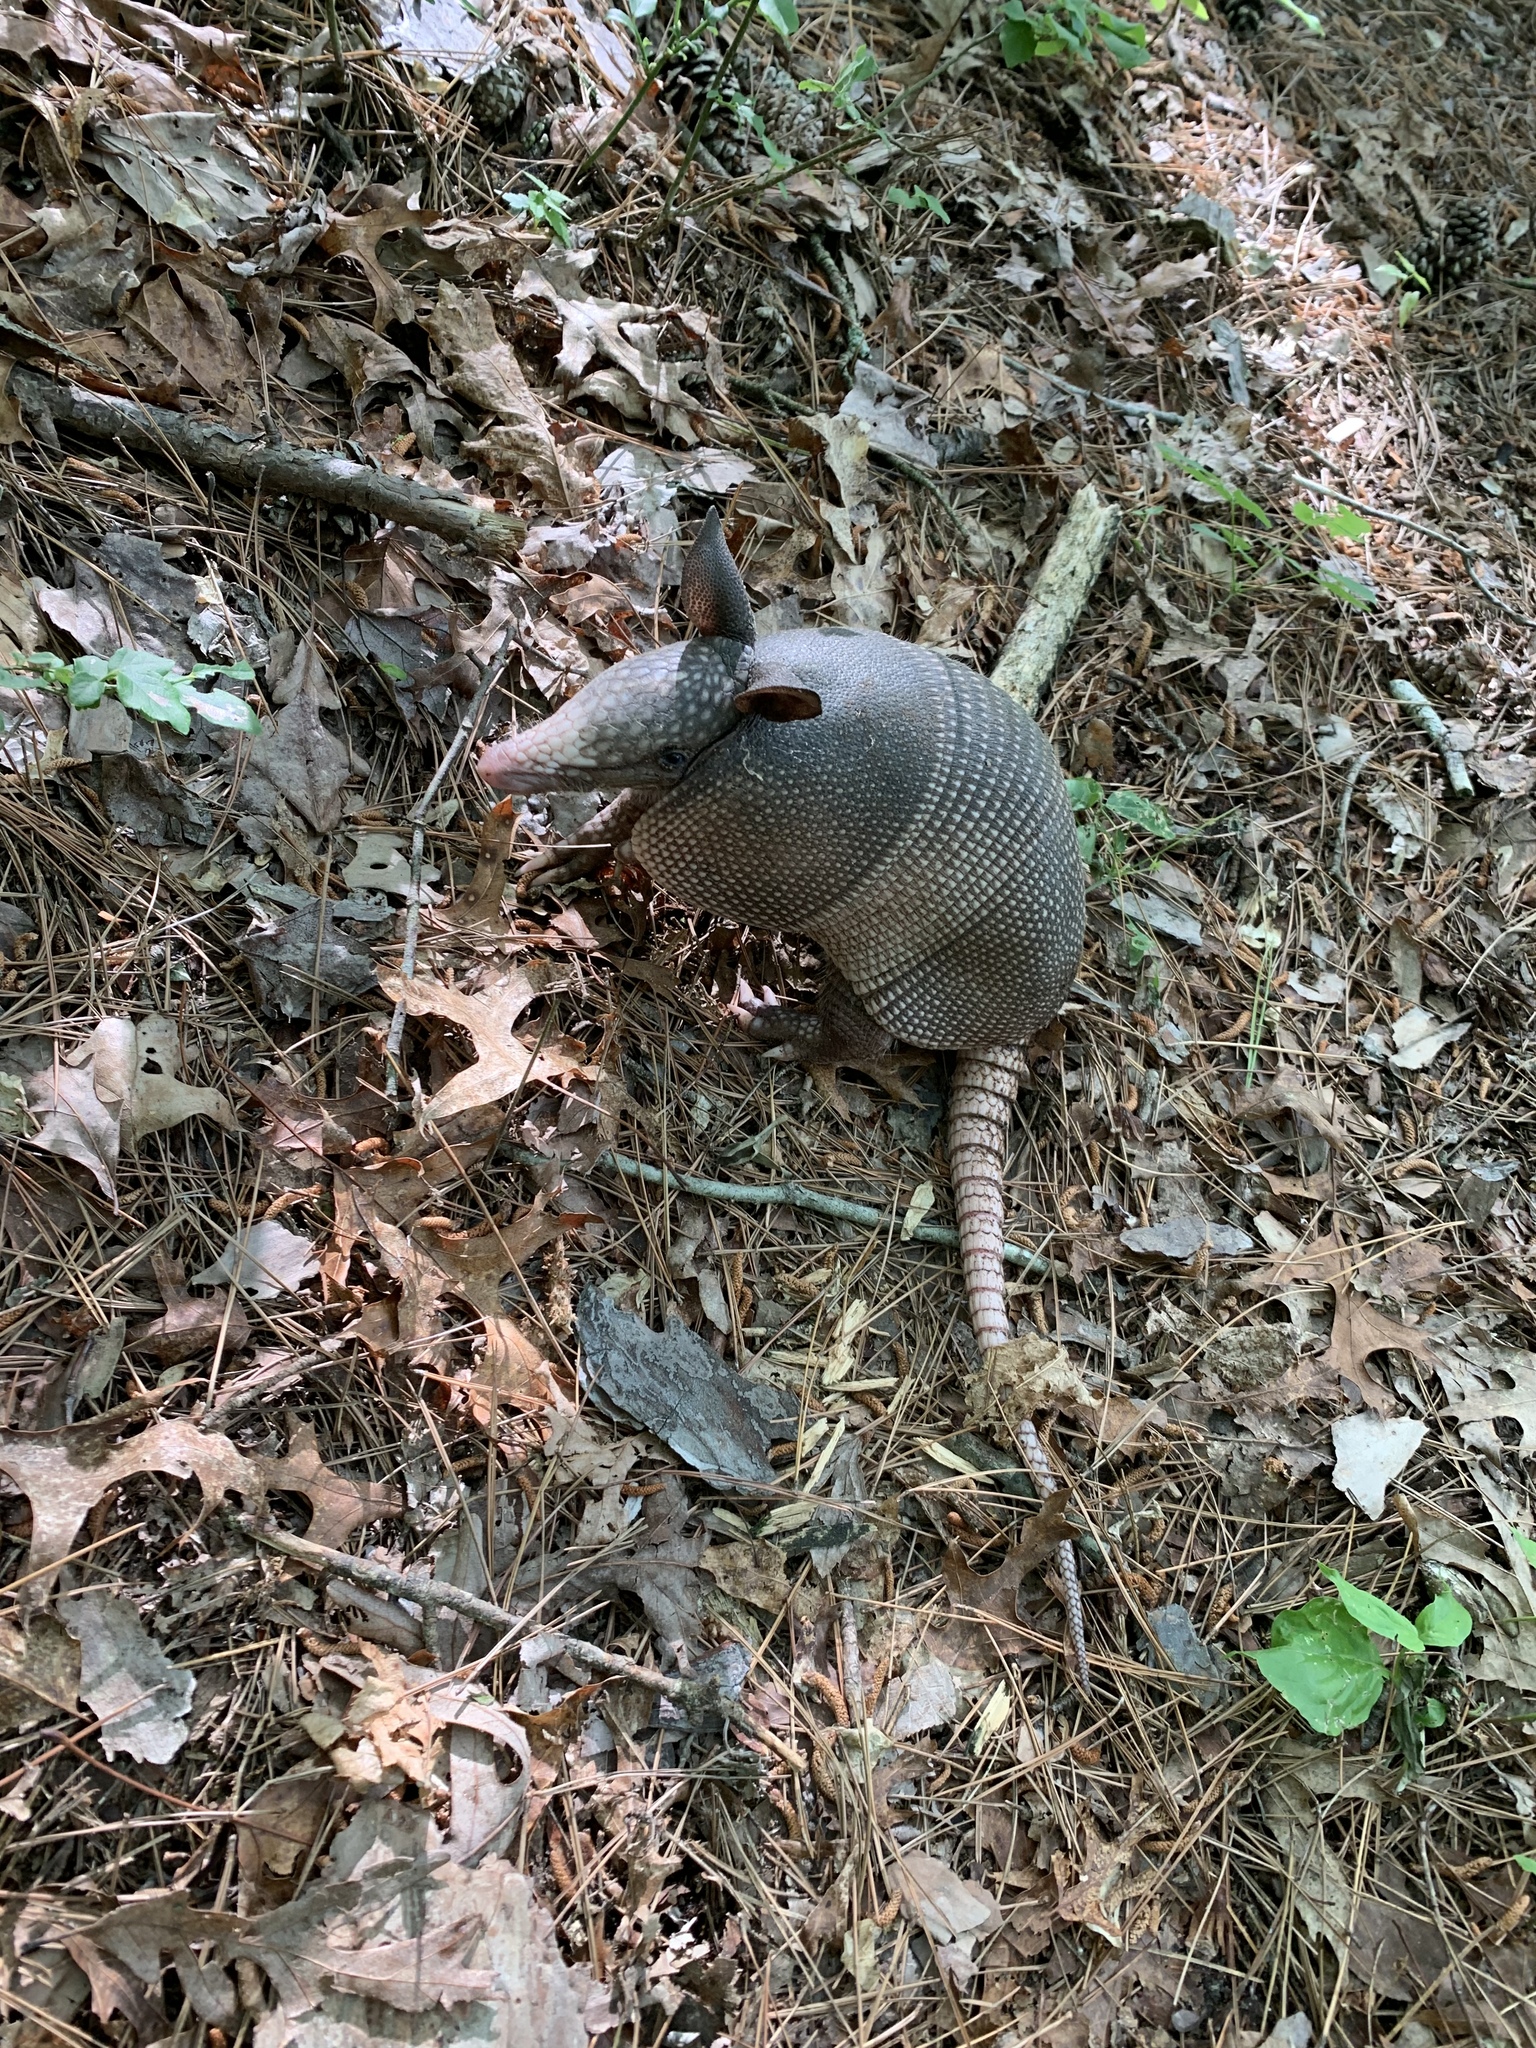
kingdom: Animalia
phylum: Chordata
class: Mammalia
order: Cingulata
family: Dasypodidae
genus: Dasypus
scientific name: Dasypus novemcinctus
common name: Nine-banded armadillo
